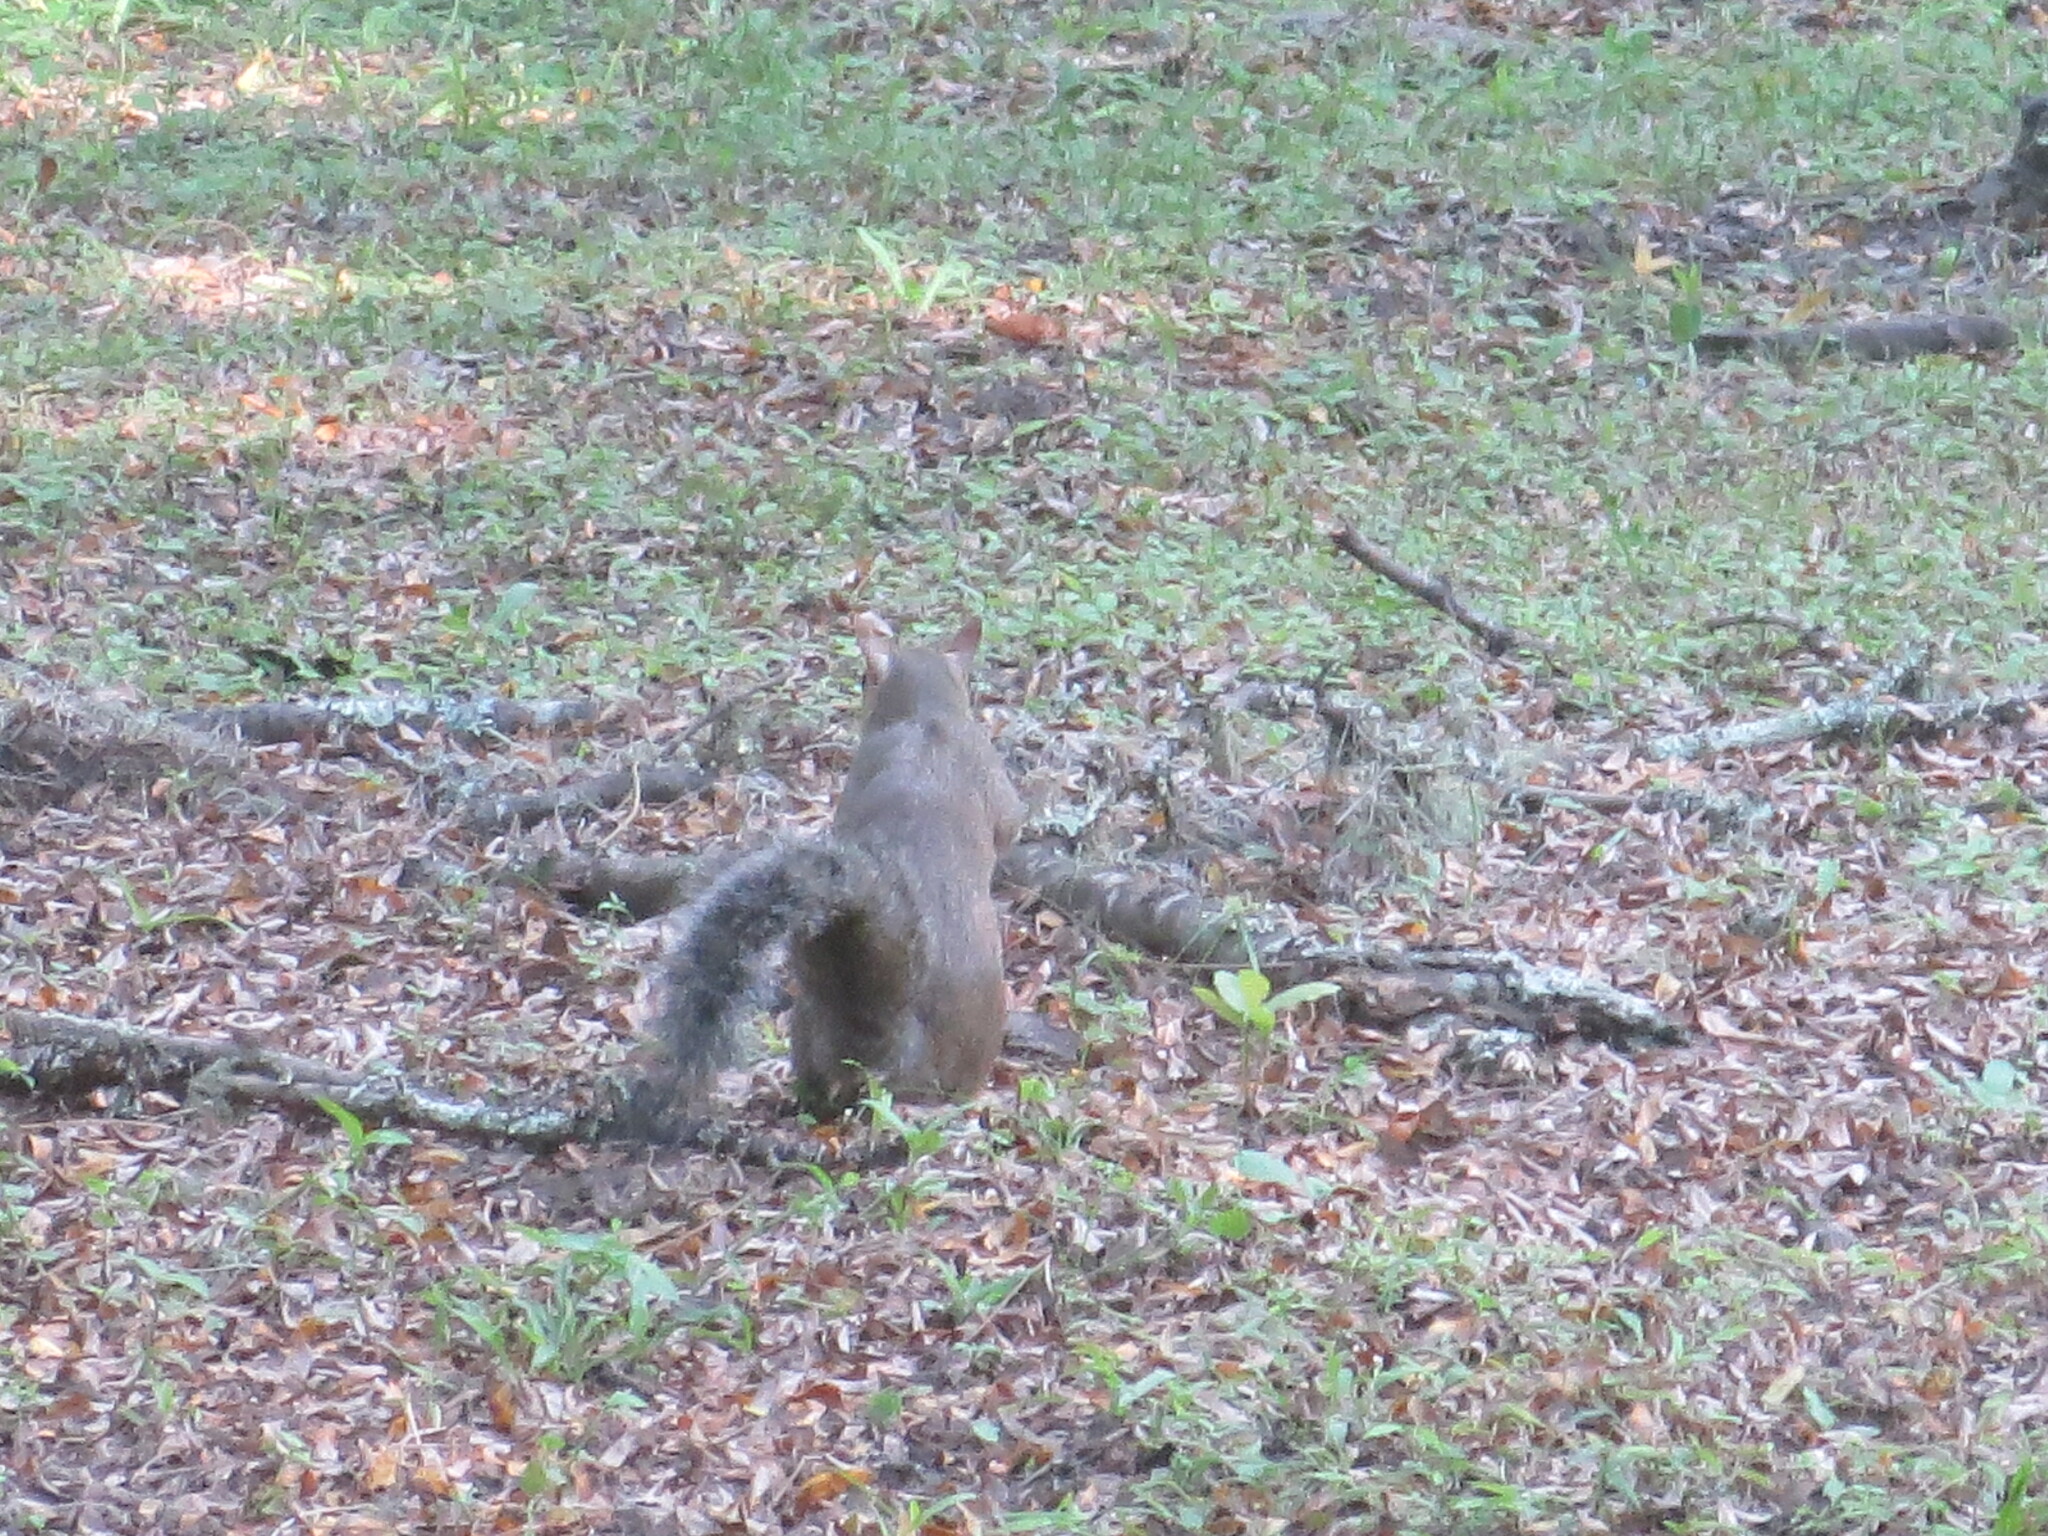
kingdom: Animalia
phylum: Chordata
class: Mammalia
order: Rodentia
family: Sciuridae
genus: Sciurus
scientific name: Sciurus carolinensis
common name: Eastern gray squirrel
